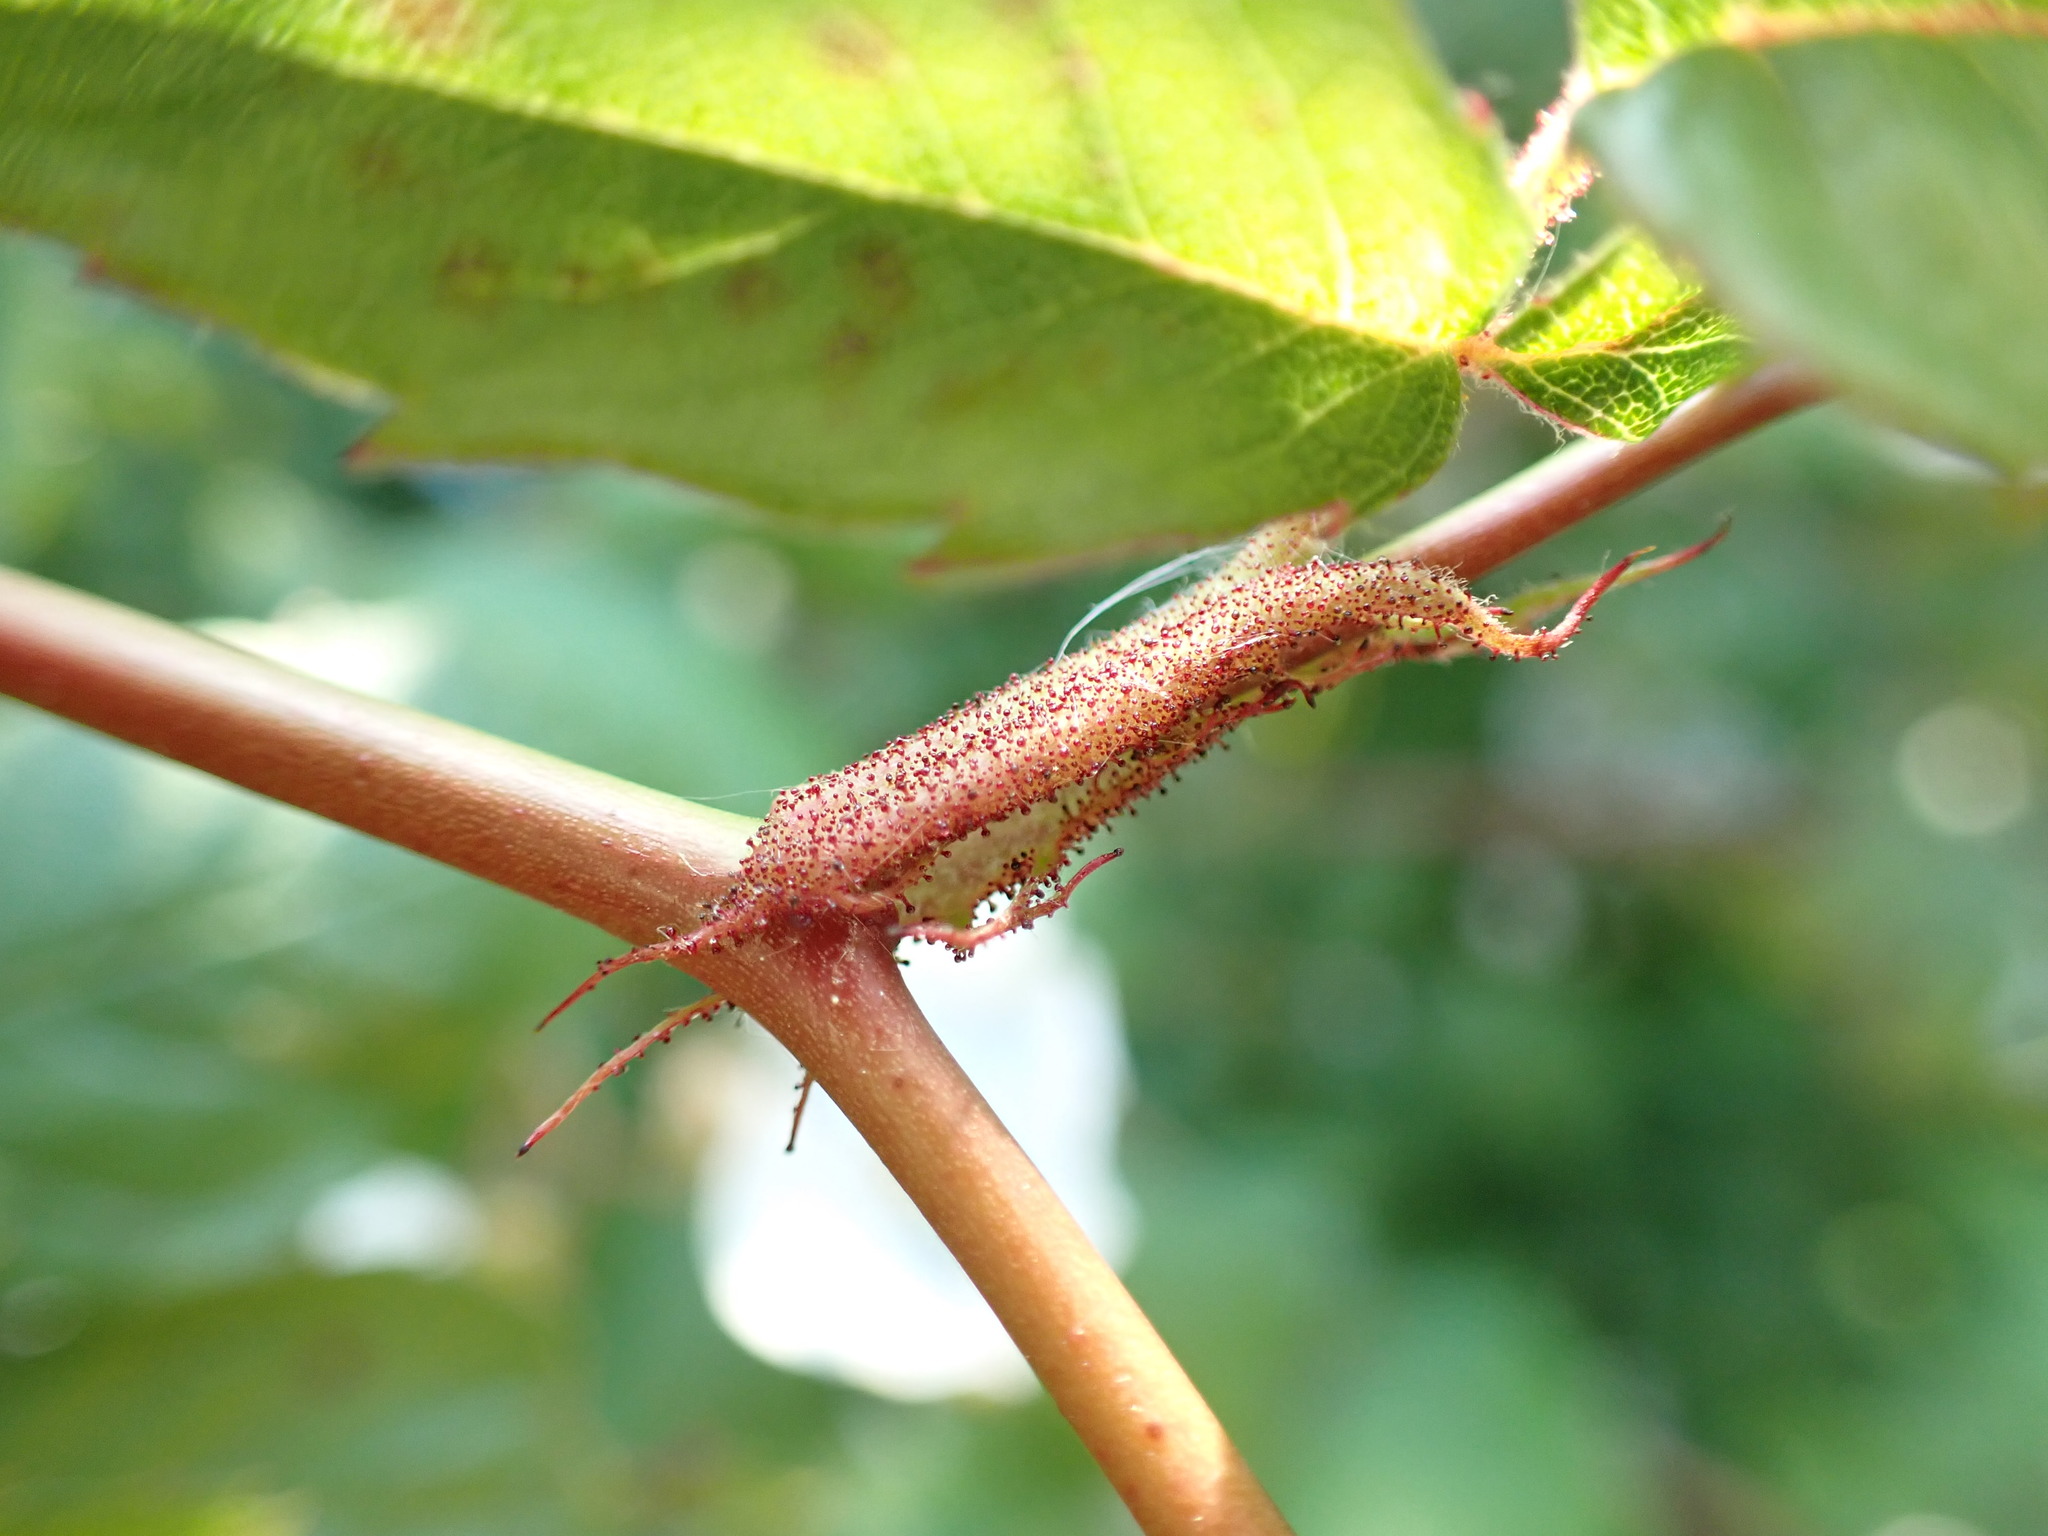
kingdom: Plantae
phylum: Tracheophyta
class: Magnoliopsida
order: Rosales
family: Rosaceae
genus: Rosa
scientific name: Rosa multiflora
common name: Multiflora rose
